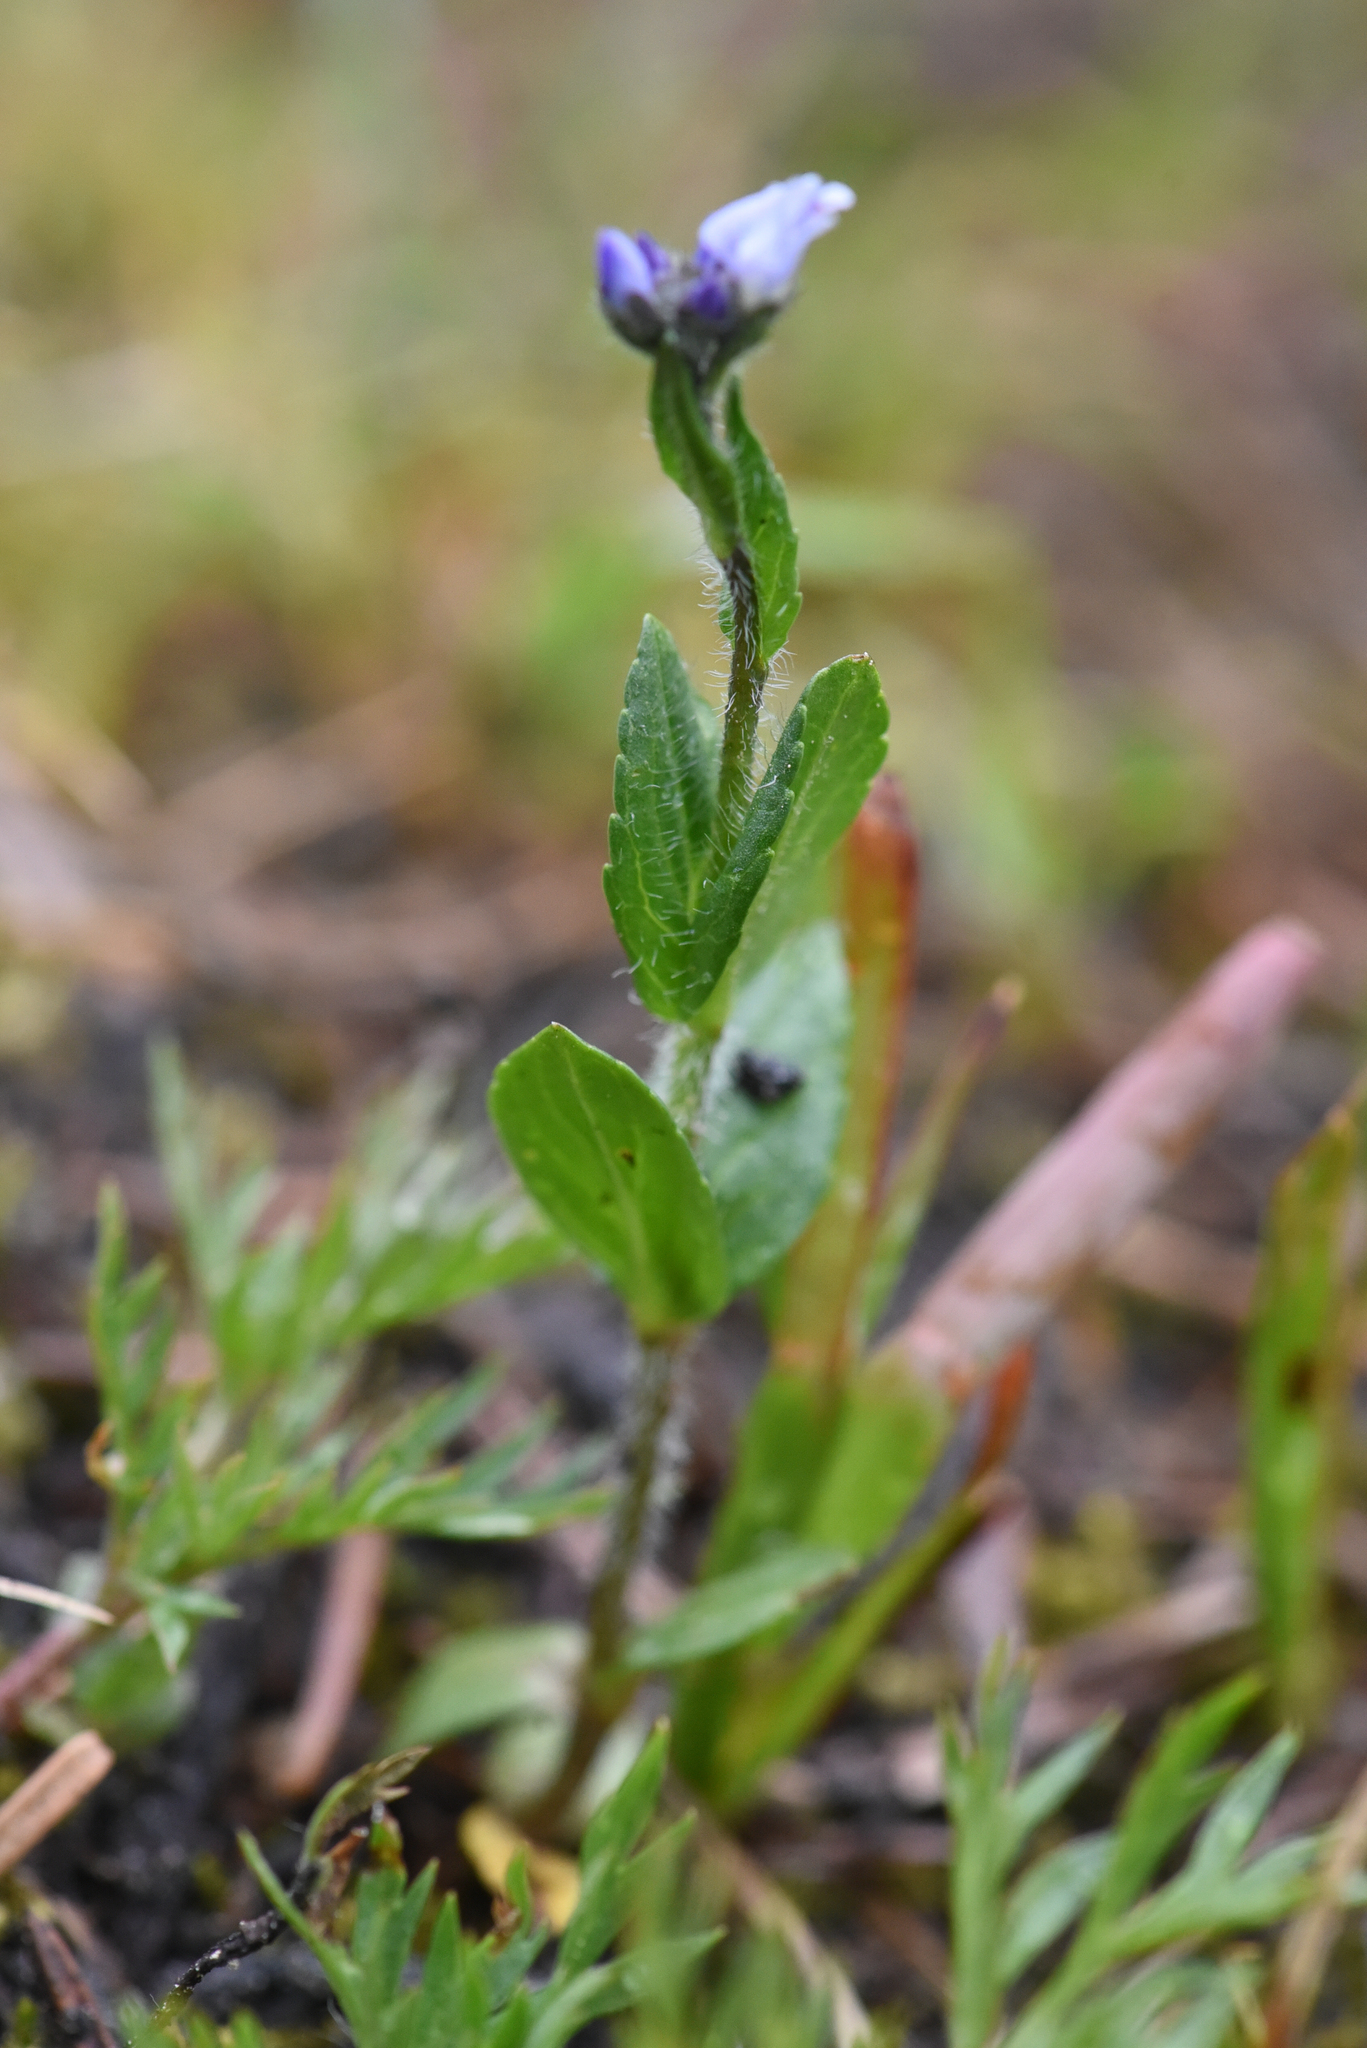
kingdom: Plantae
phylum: Tracheophyta
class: Magnoliopsida
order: Lamiales
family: Plantaginaceae
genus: Veronica
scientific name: Veronica wormskjoldii
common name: American alpine speedwell
